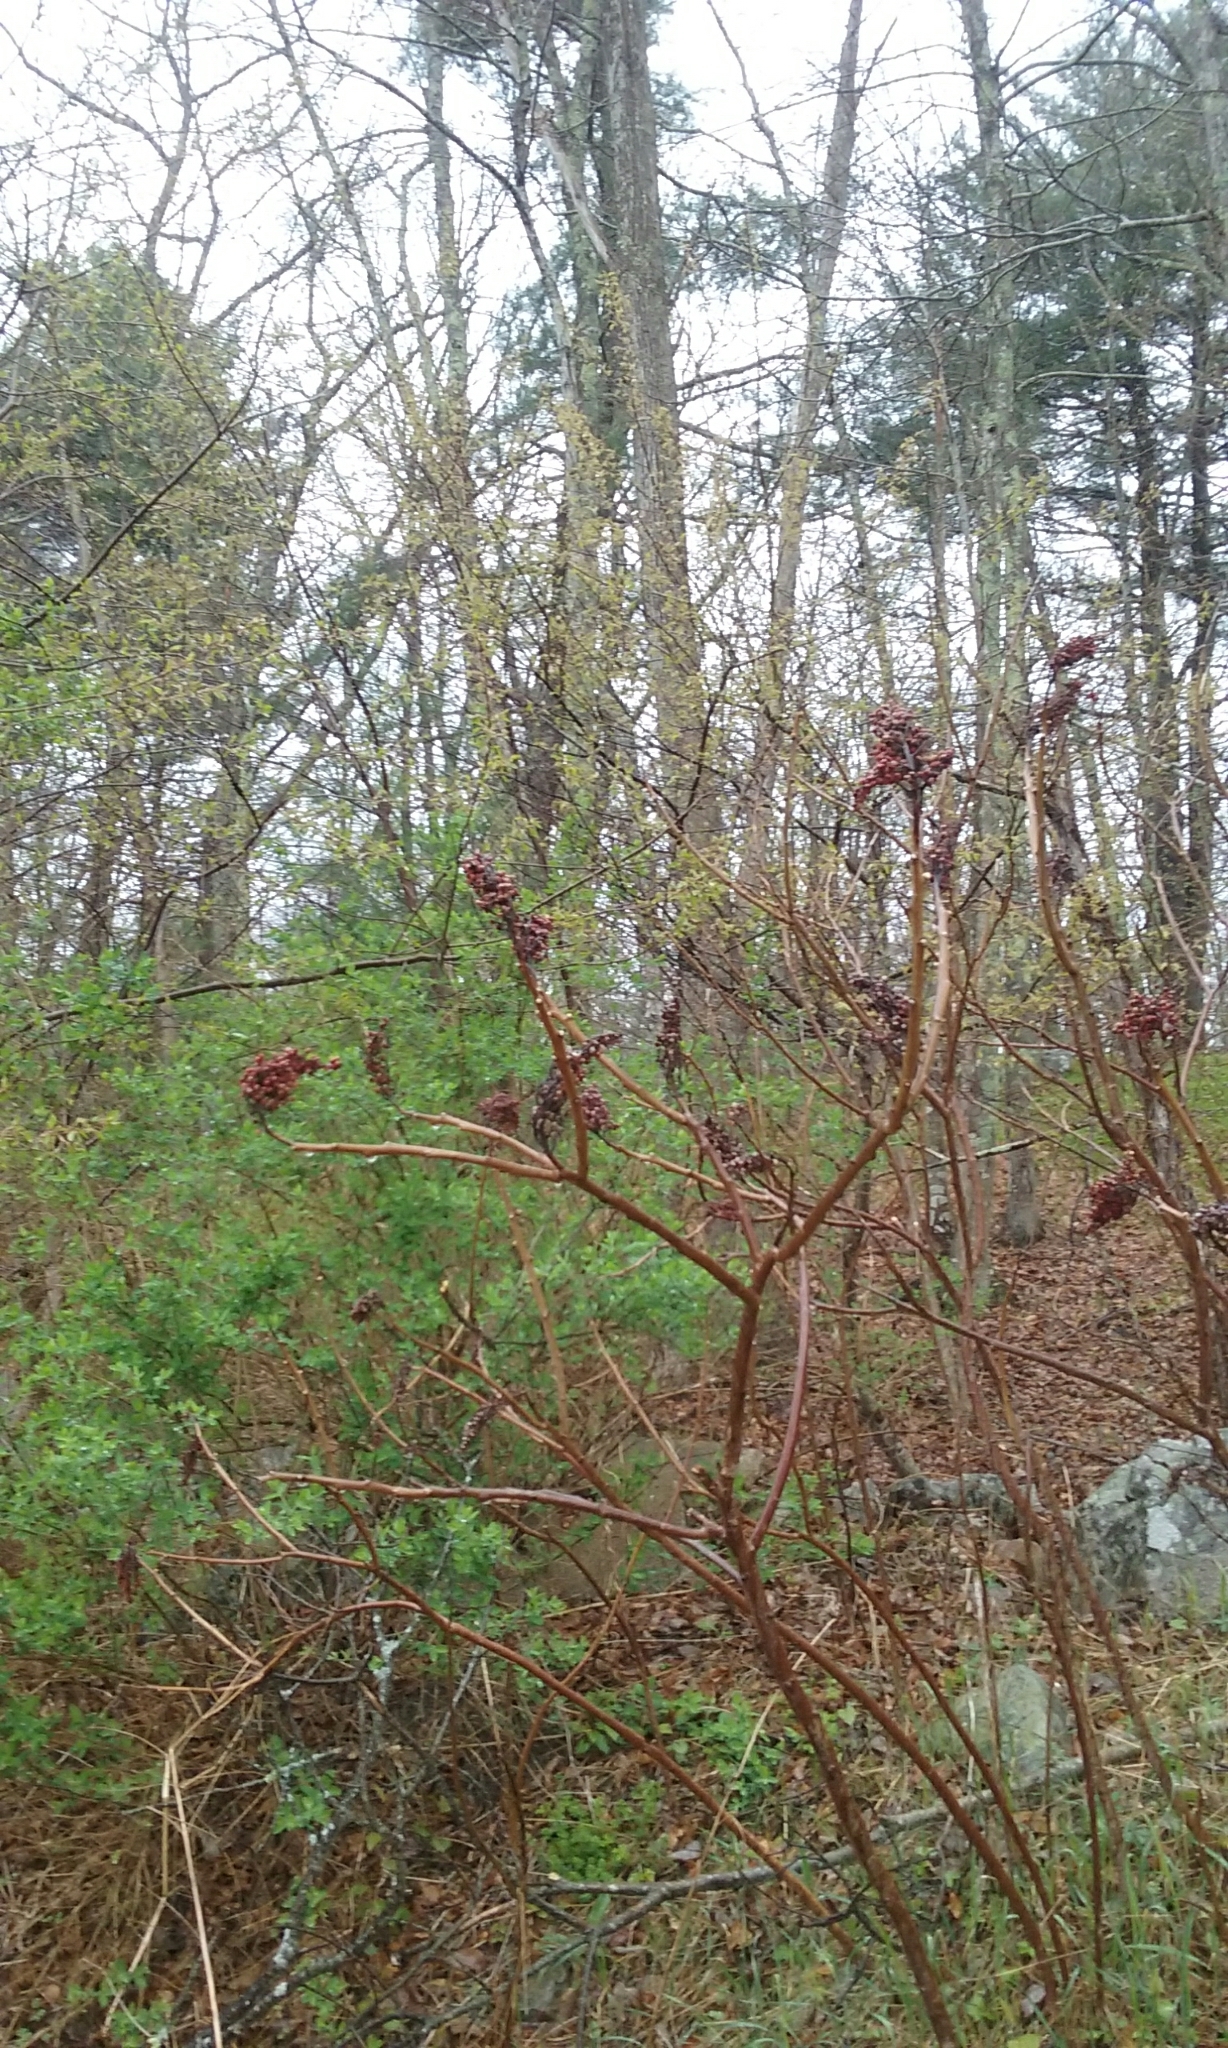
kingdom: Plantae
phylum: Tracheophyta
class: Magnoliopsida
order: Sapindales
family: Anacardiaceae
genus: Rhus
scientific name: Rhus glabra
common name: Scarlet sumac
